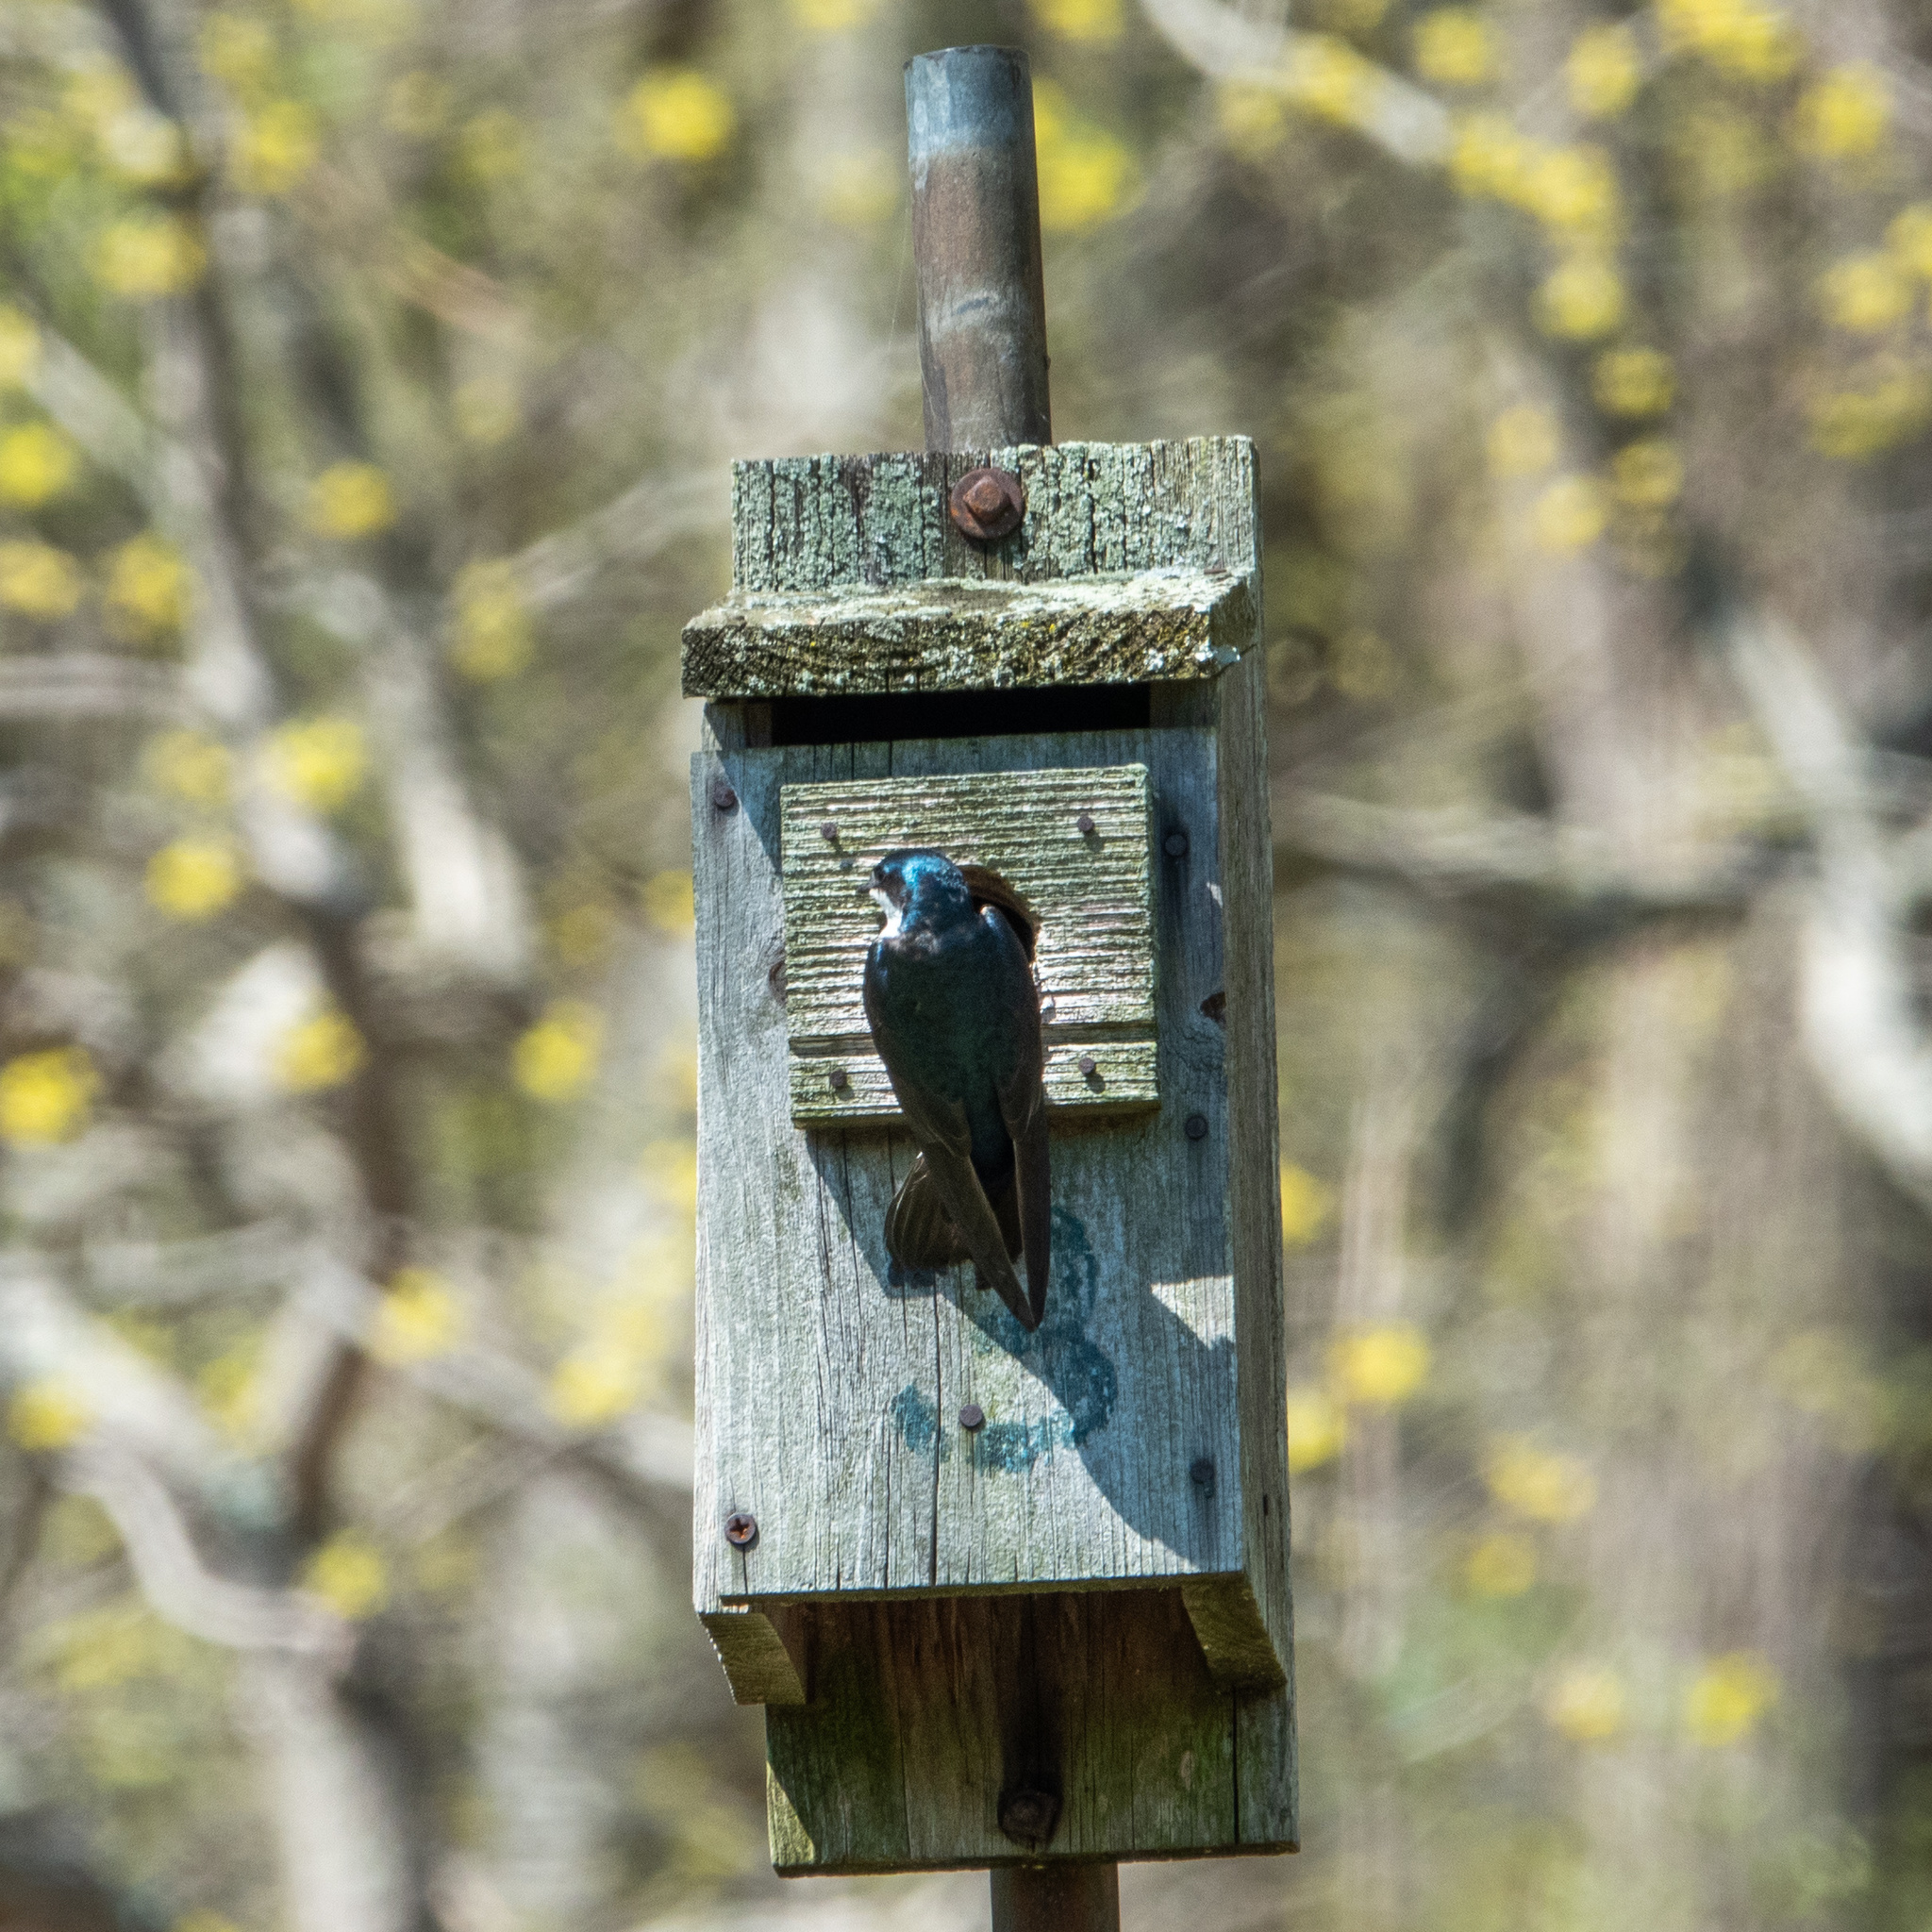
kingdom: Animalia
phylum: Chordata
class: Aves
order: Passeriformes
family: Hirundinidae
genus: Tachycineta
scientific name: Tachycineta bicolor
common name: Tree swallow
